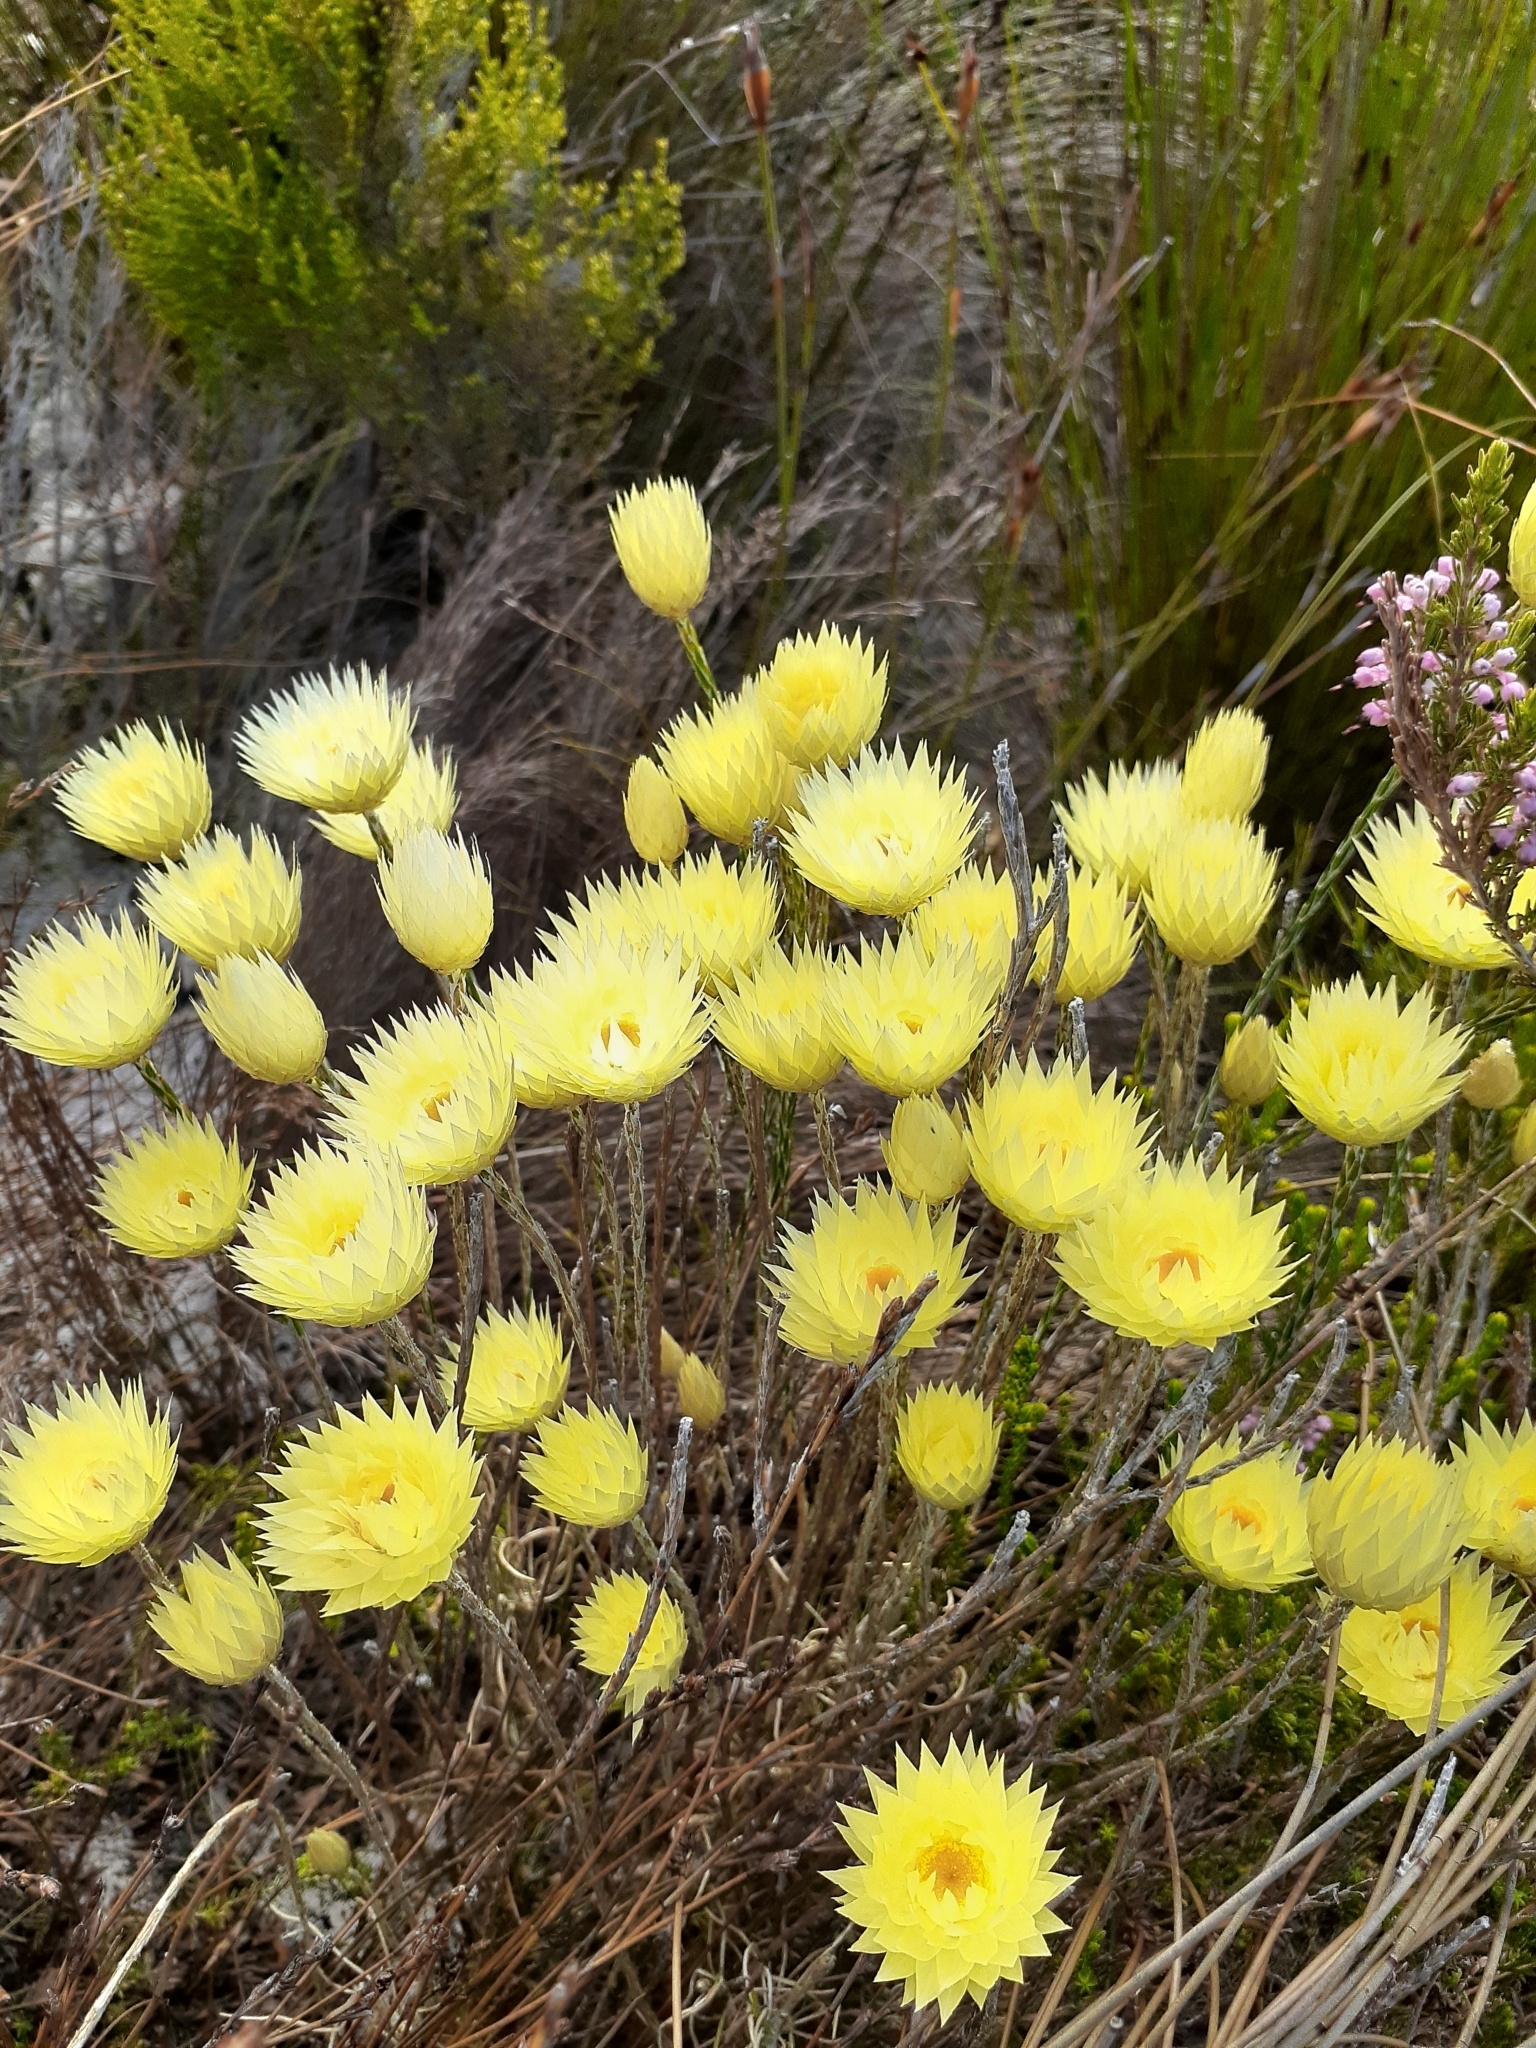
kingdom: Plantae
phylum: Tracheophyta
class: Magnoliopsida
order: Asterales
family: Asteraceae
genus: Edmondia
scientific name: Edmondia sesamoides
